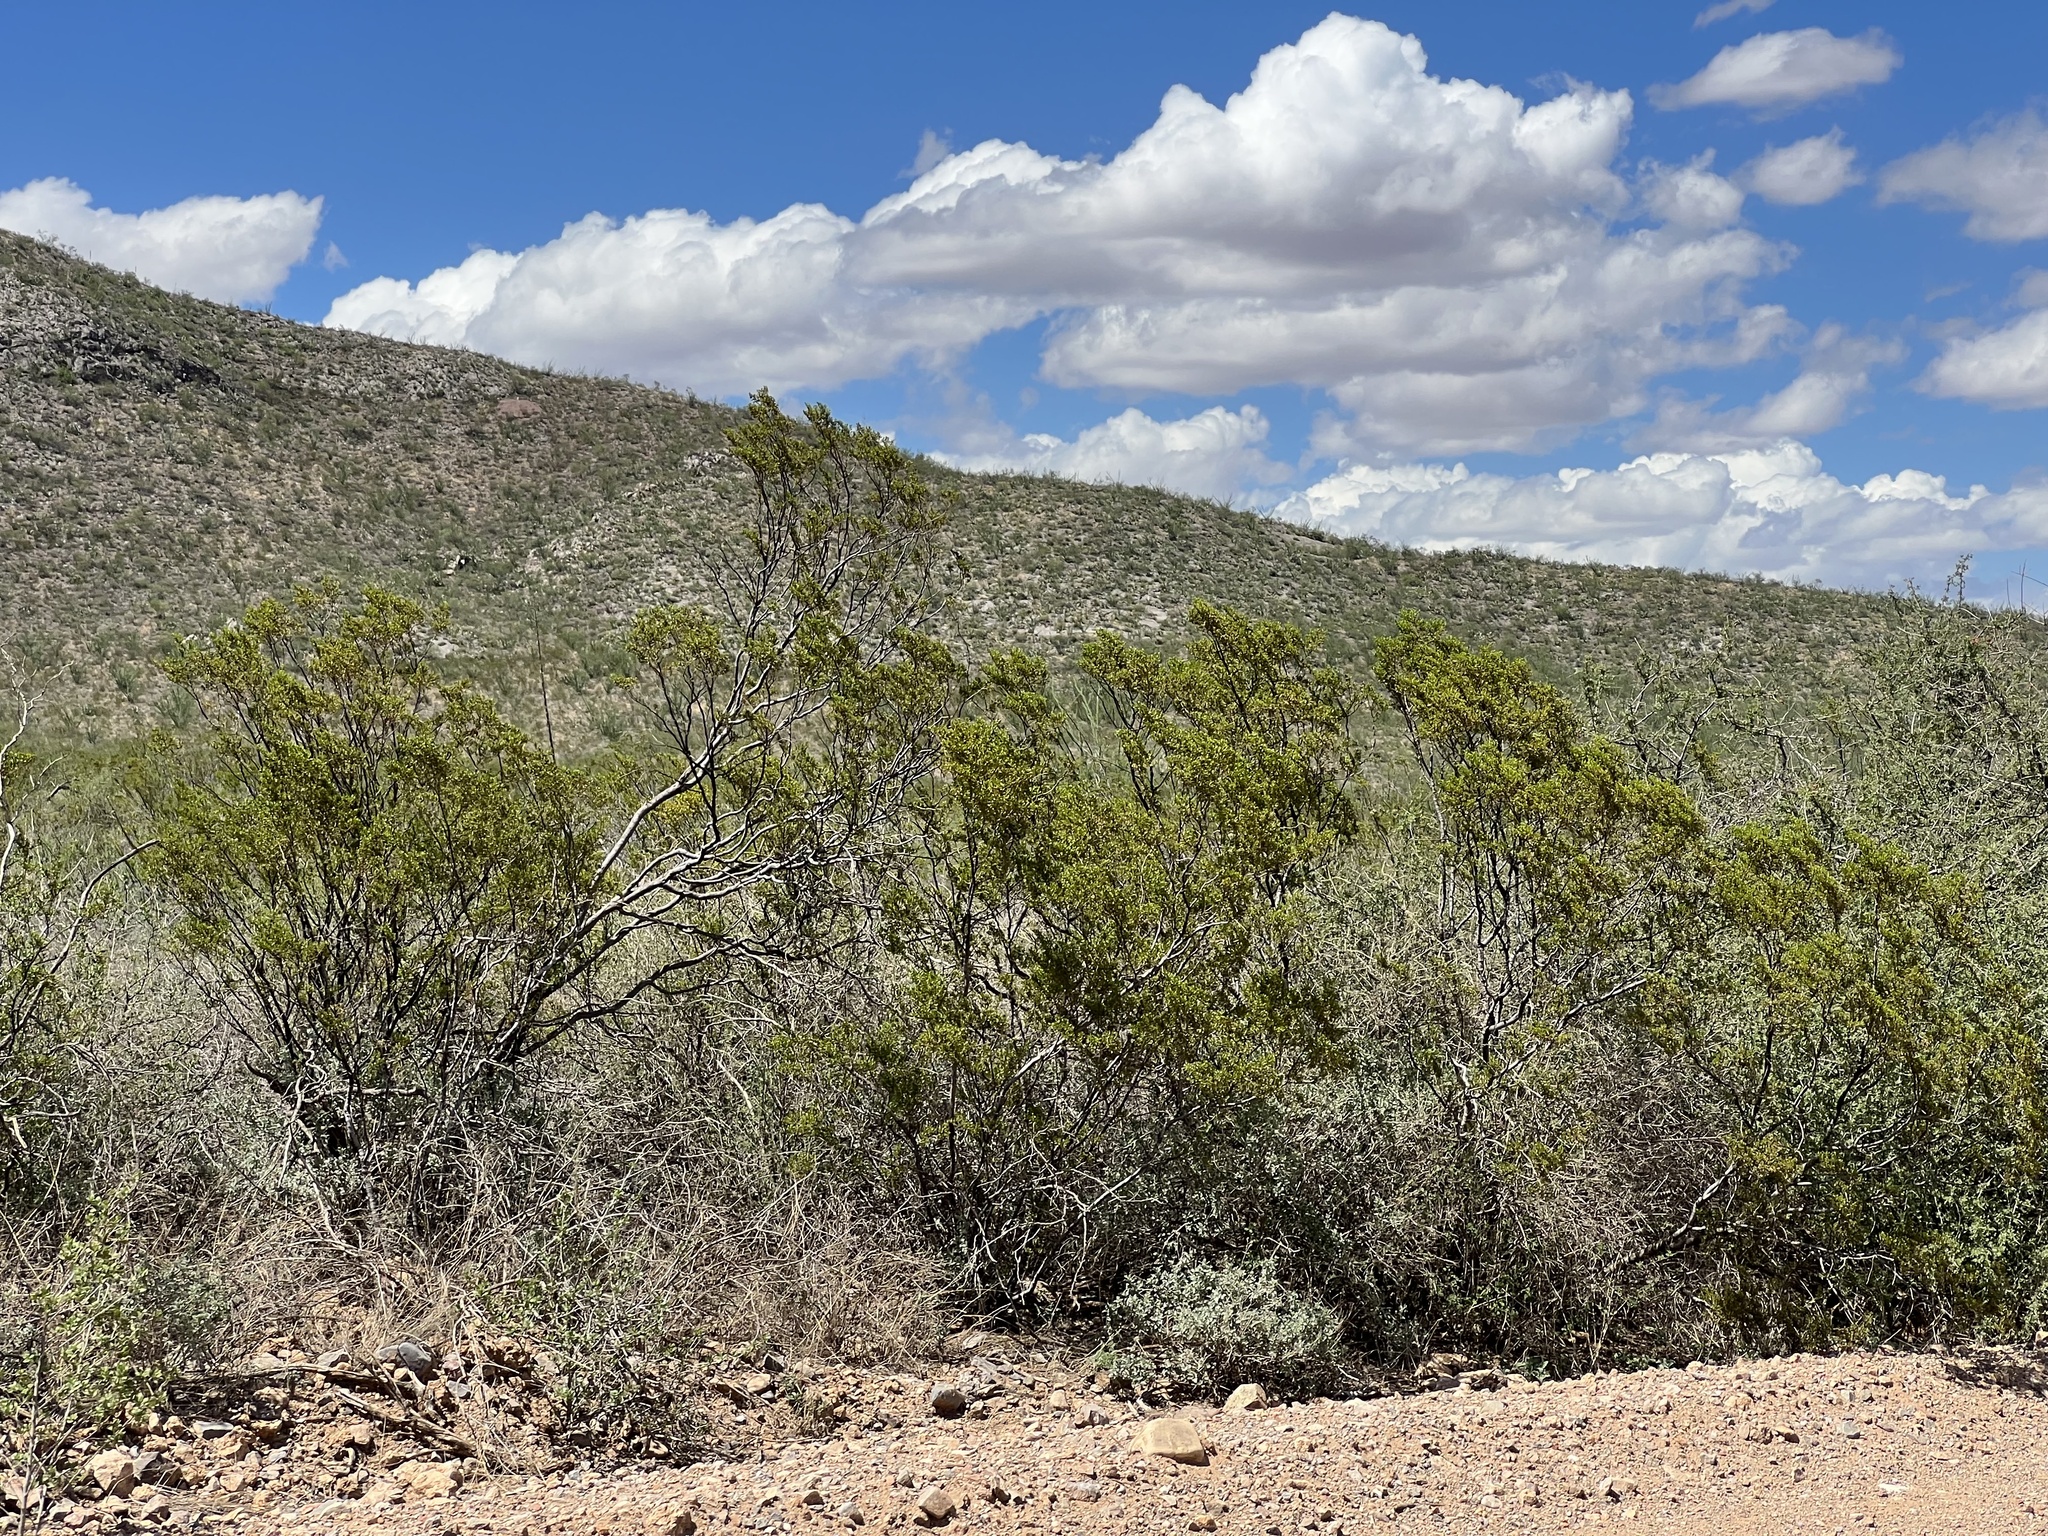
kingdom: Plantae
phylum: Tracheophyta
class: Magnoliopsida
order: Zygophyllales
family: Zygophyllaceae
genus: Larrea
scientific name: Larrea tridentata
